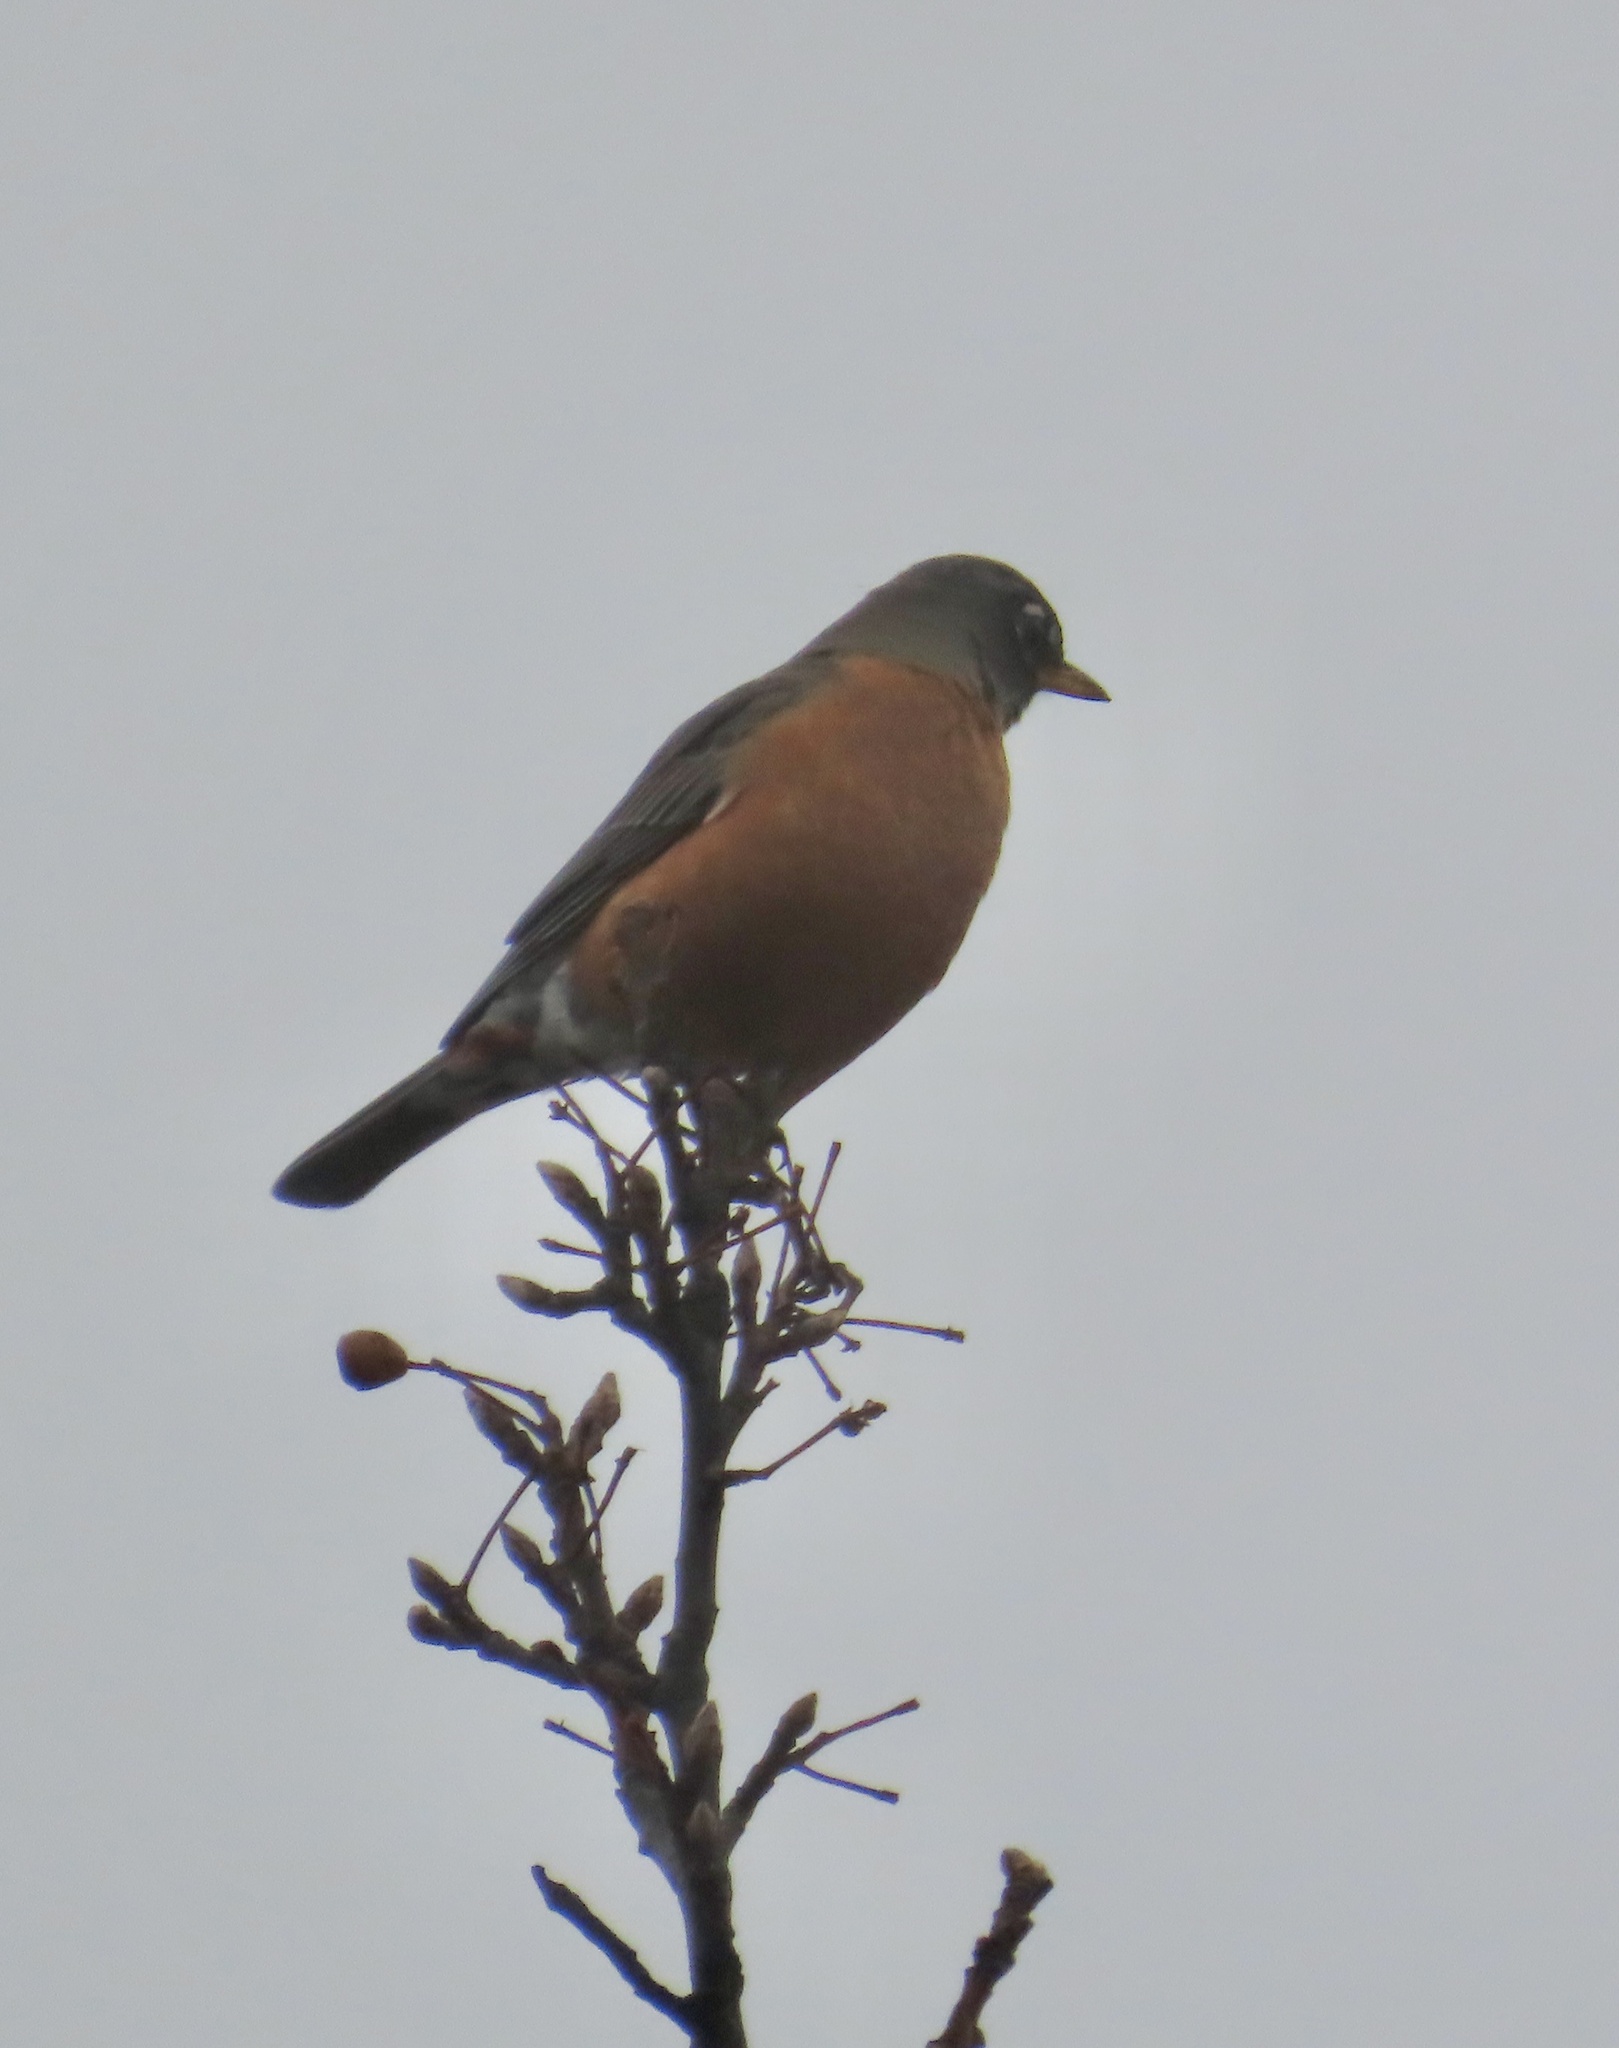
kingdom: Animalia
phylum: Chordata
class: Aves
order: Passeriformes
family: Turdidae
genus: Turdus
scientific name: Turdus migratorius
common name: American robin
